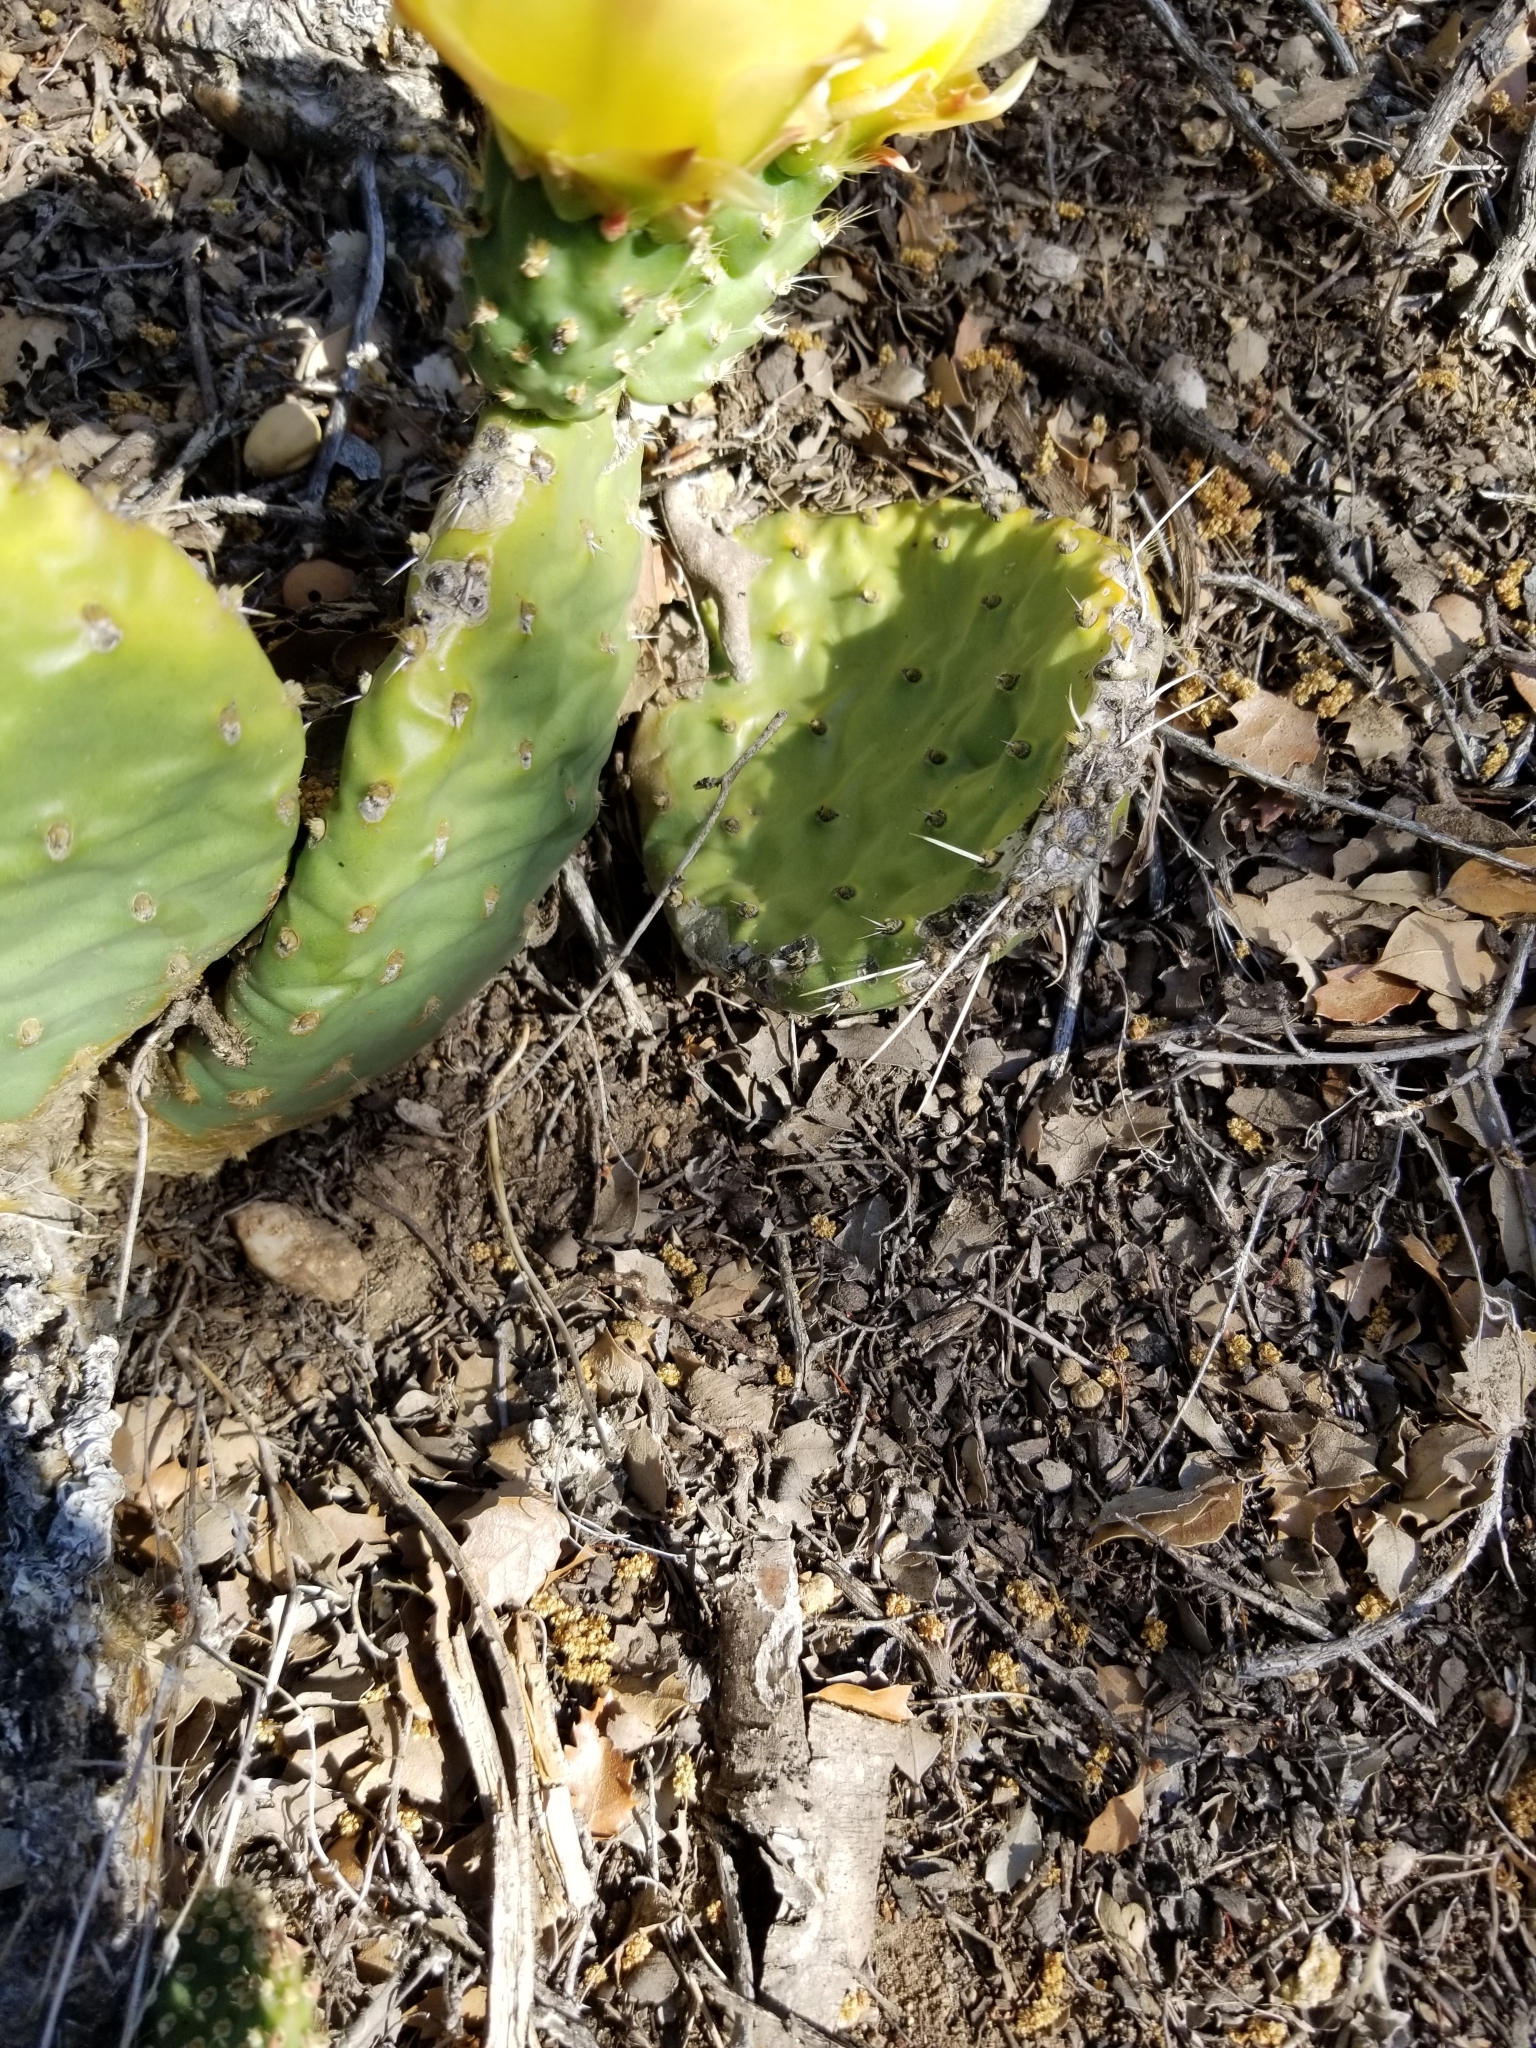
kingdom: Plantae
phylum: Tracheophyta
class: Magnoliopsida
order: Caryophyllales
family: Cactaceae
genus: Opuntia
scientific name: Opuntia polyacantha
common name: Plains prickly-pear
